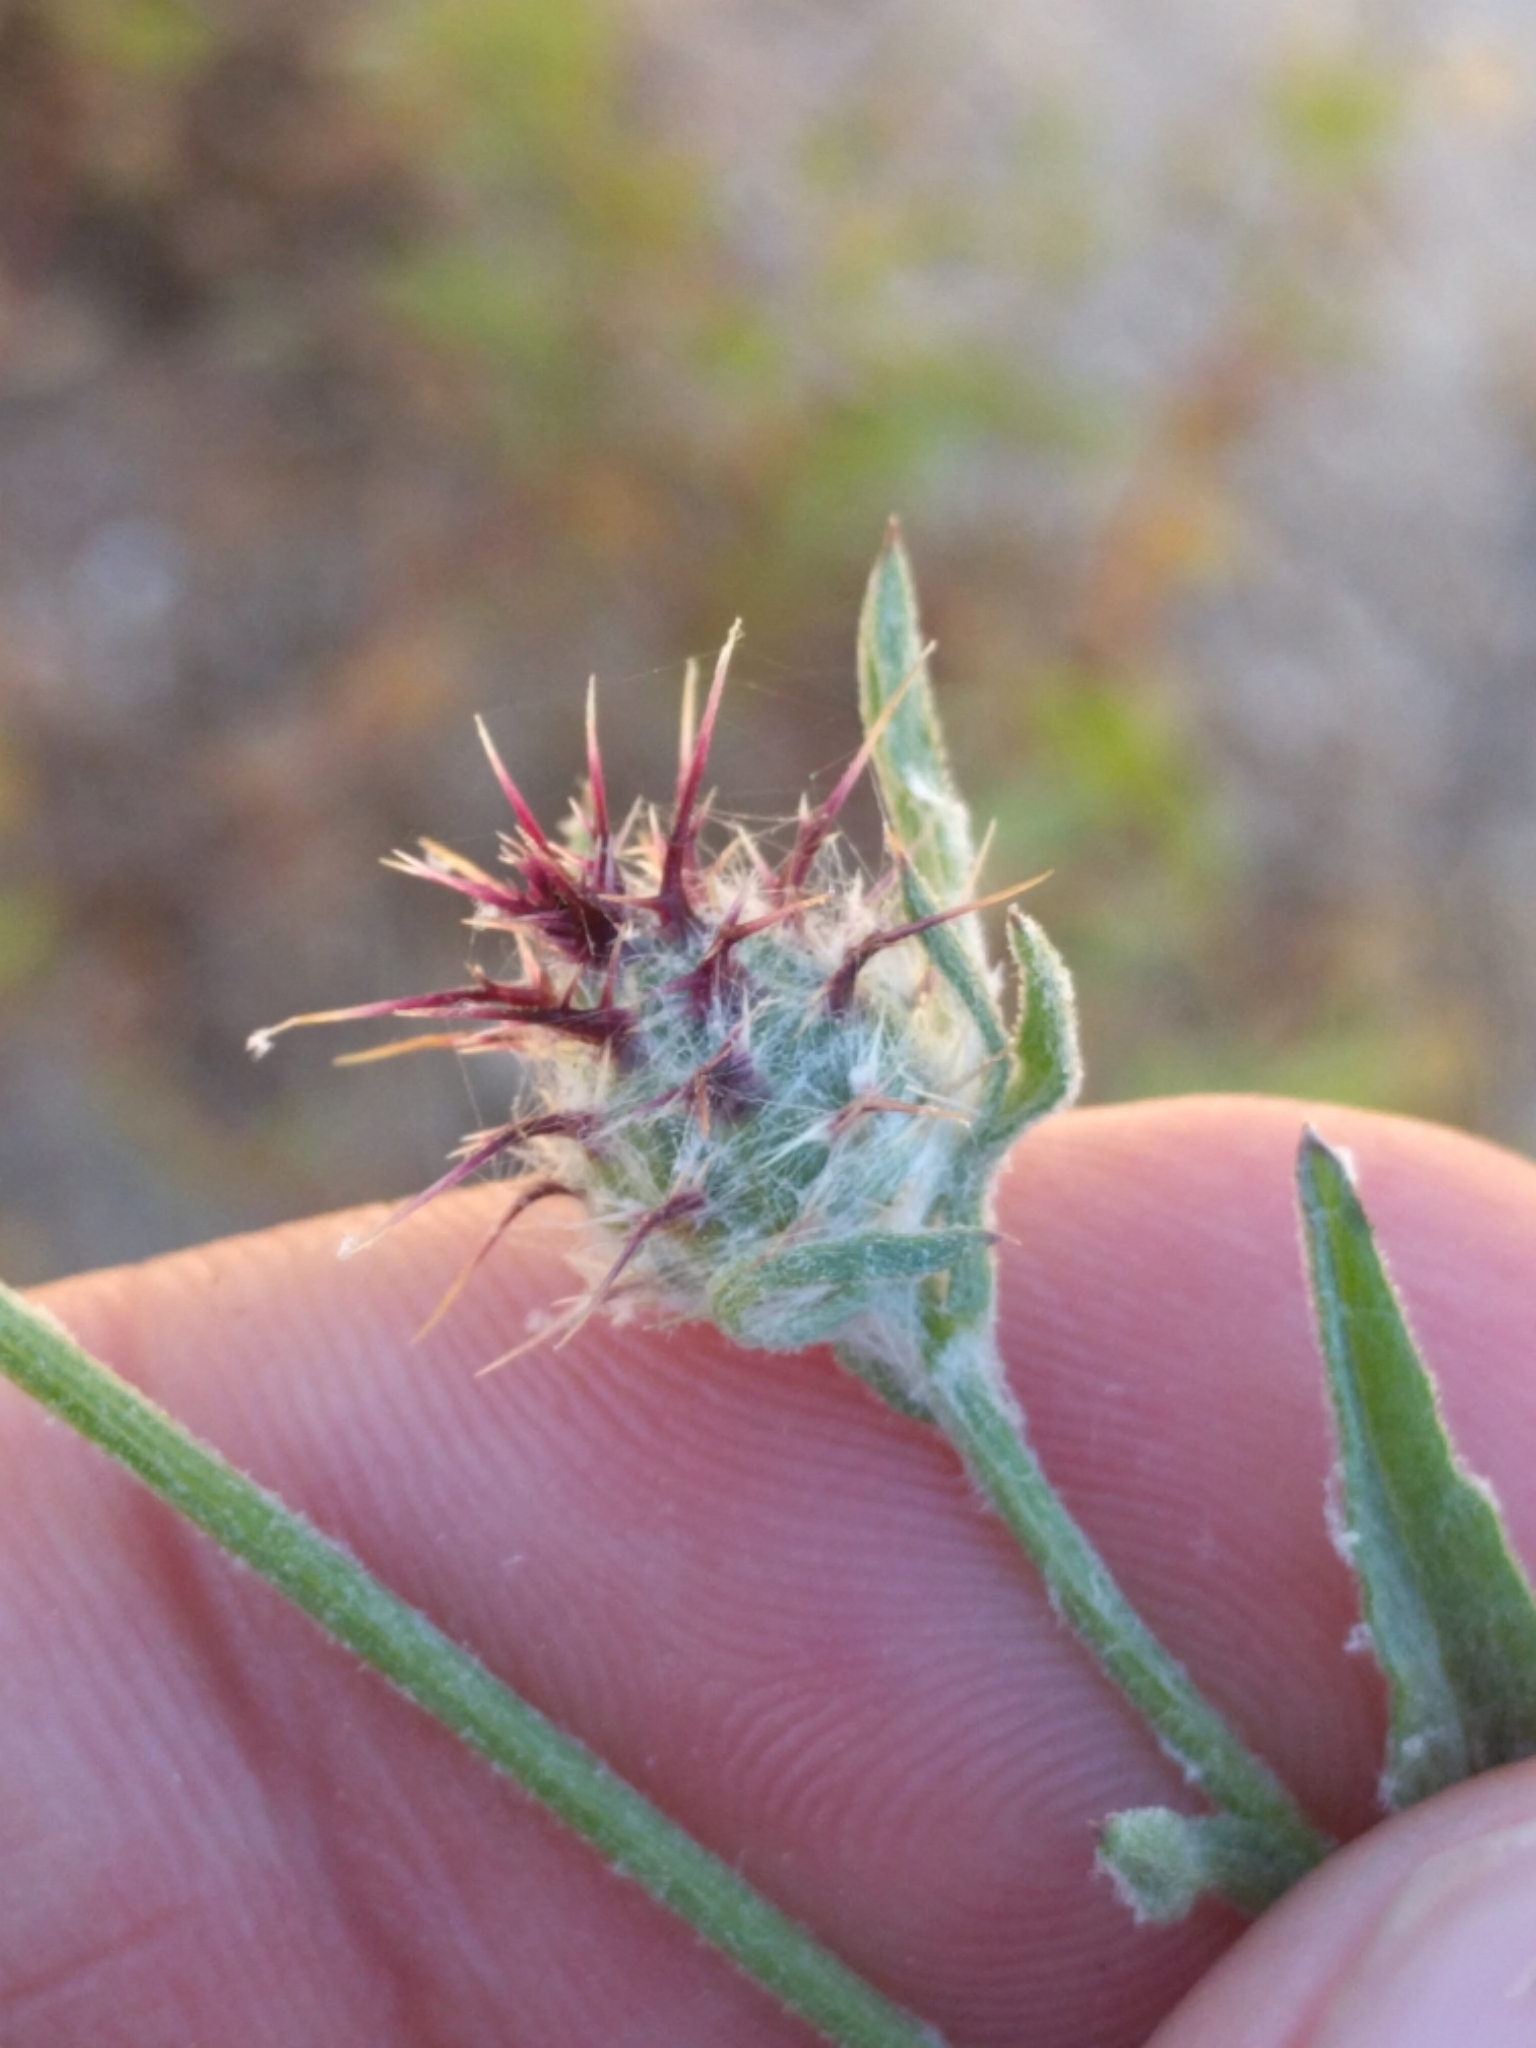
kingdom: Plantae
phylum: Tracheophyta
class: Magnoliopsida
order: Asterales
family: Asteraceae
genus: Centaurea
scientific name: Centaurea melitensis
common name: Maltese star-thistle
